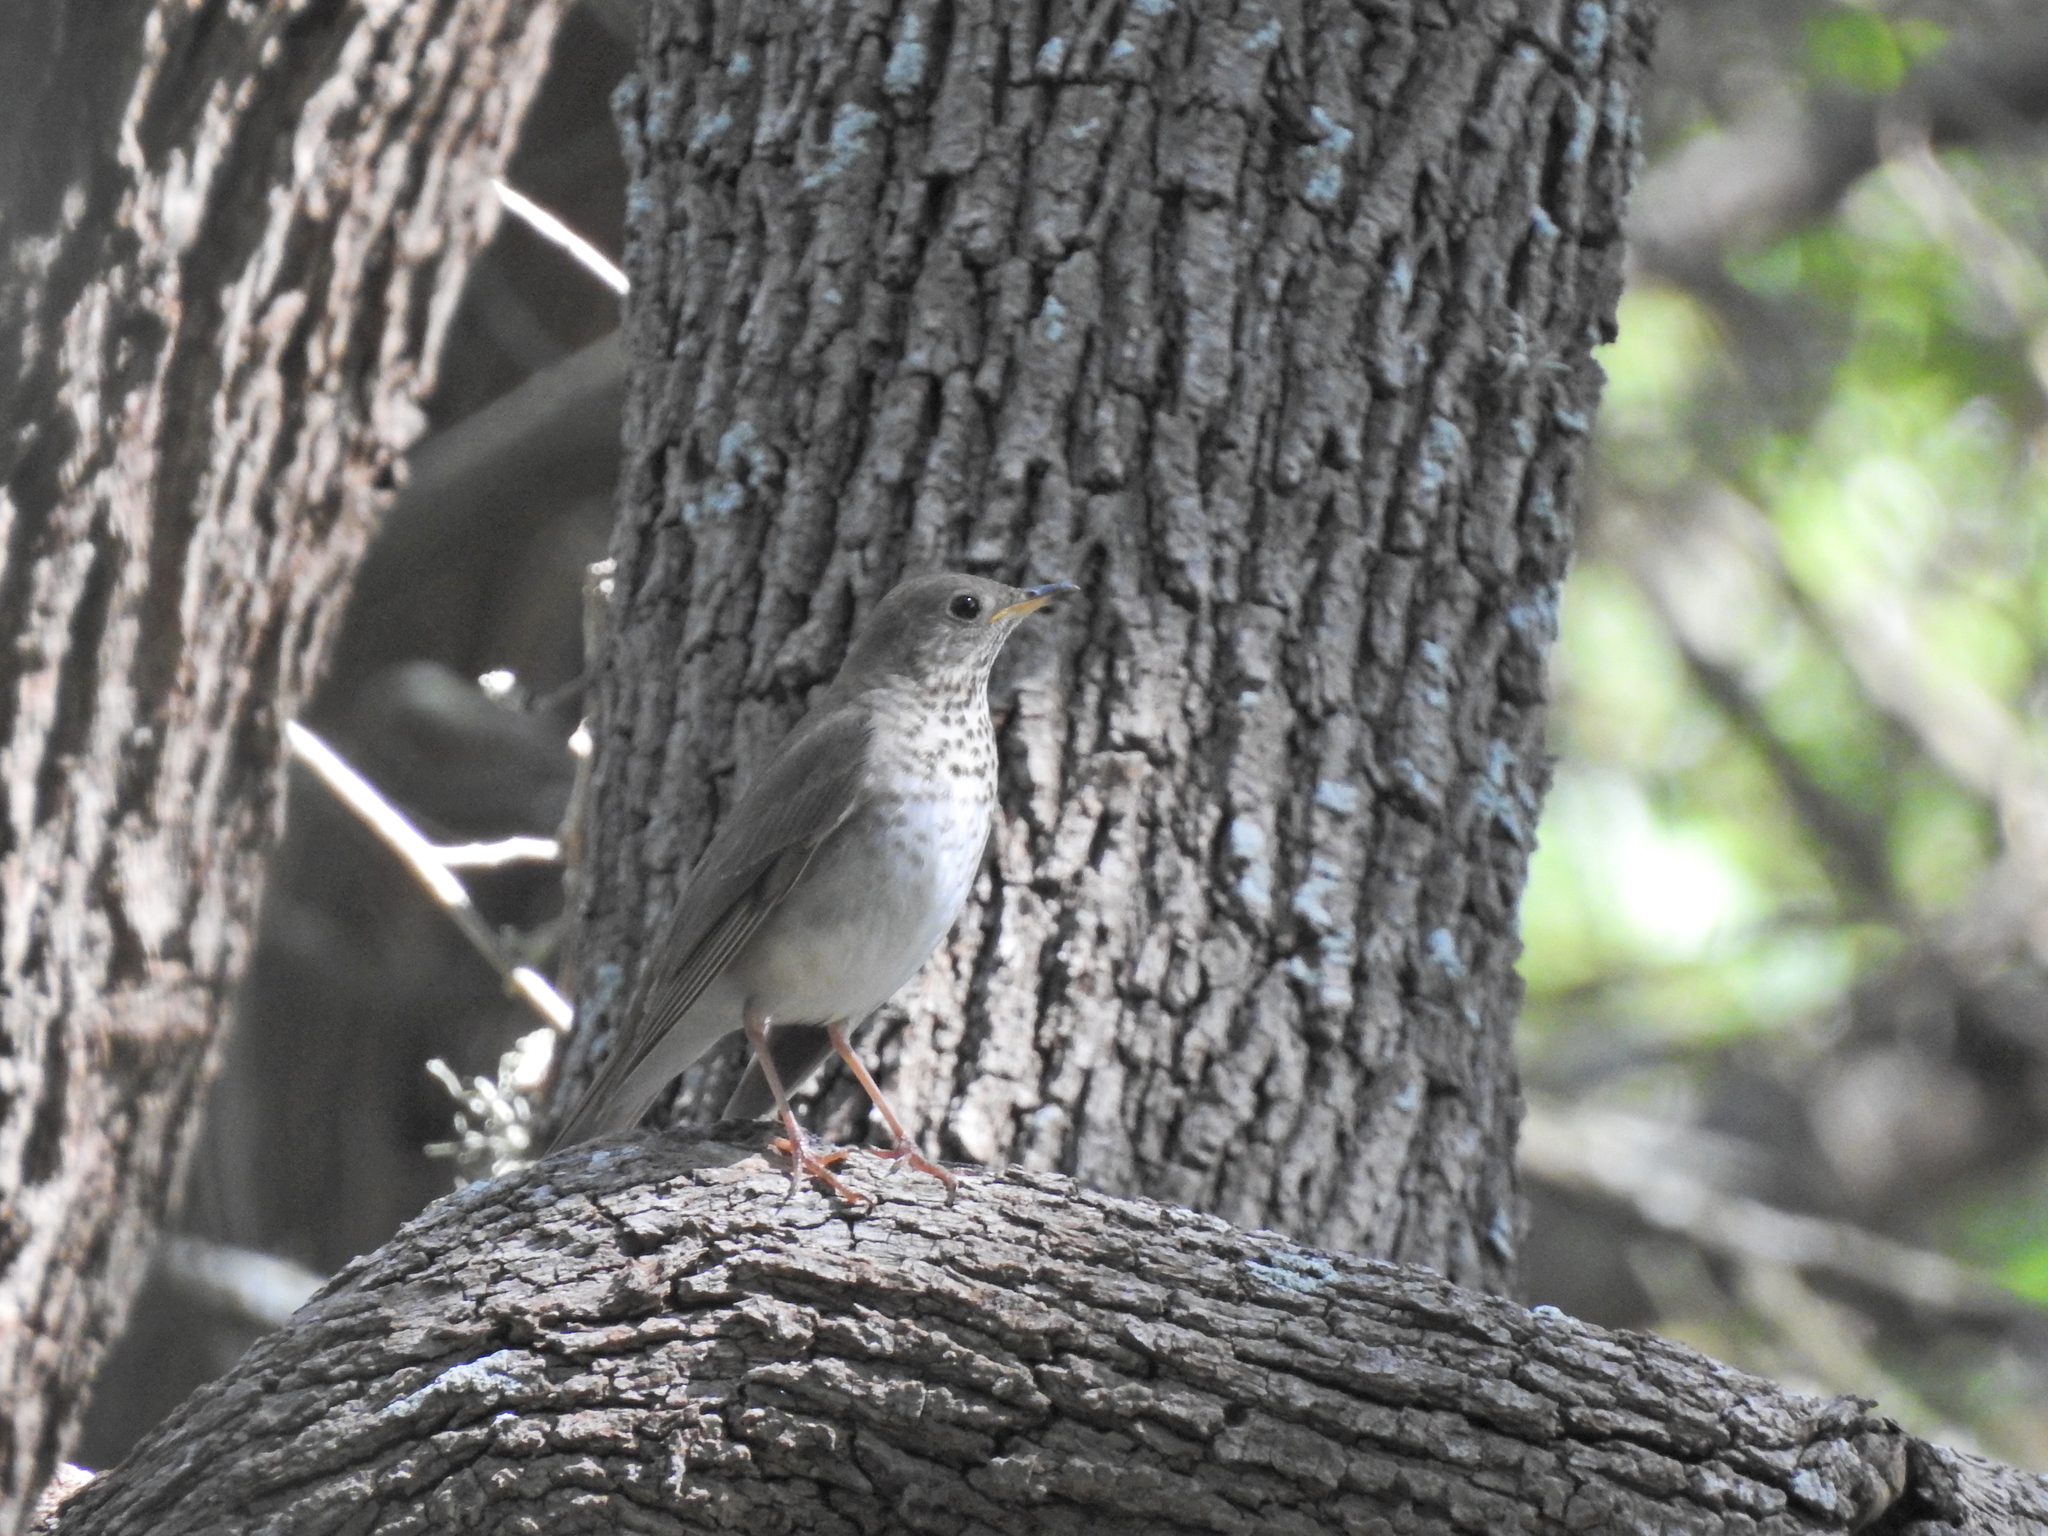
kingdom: Animalia
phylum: Chordata
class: Aves
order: Passeriformes
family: Turdidae
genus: Catharus
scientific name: Catharus minimus
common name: Grey-cheeked thrush
